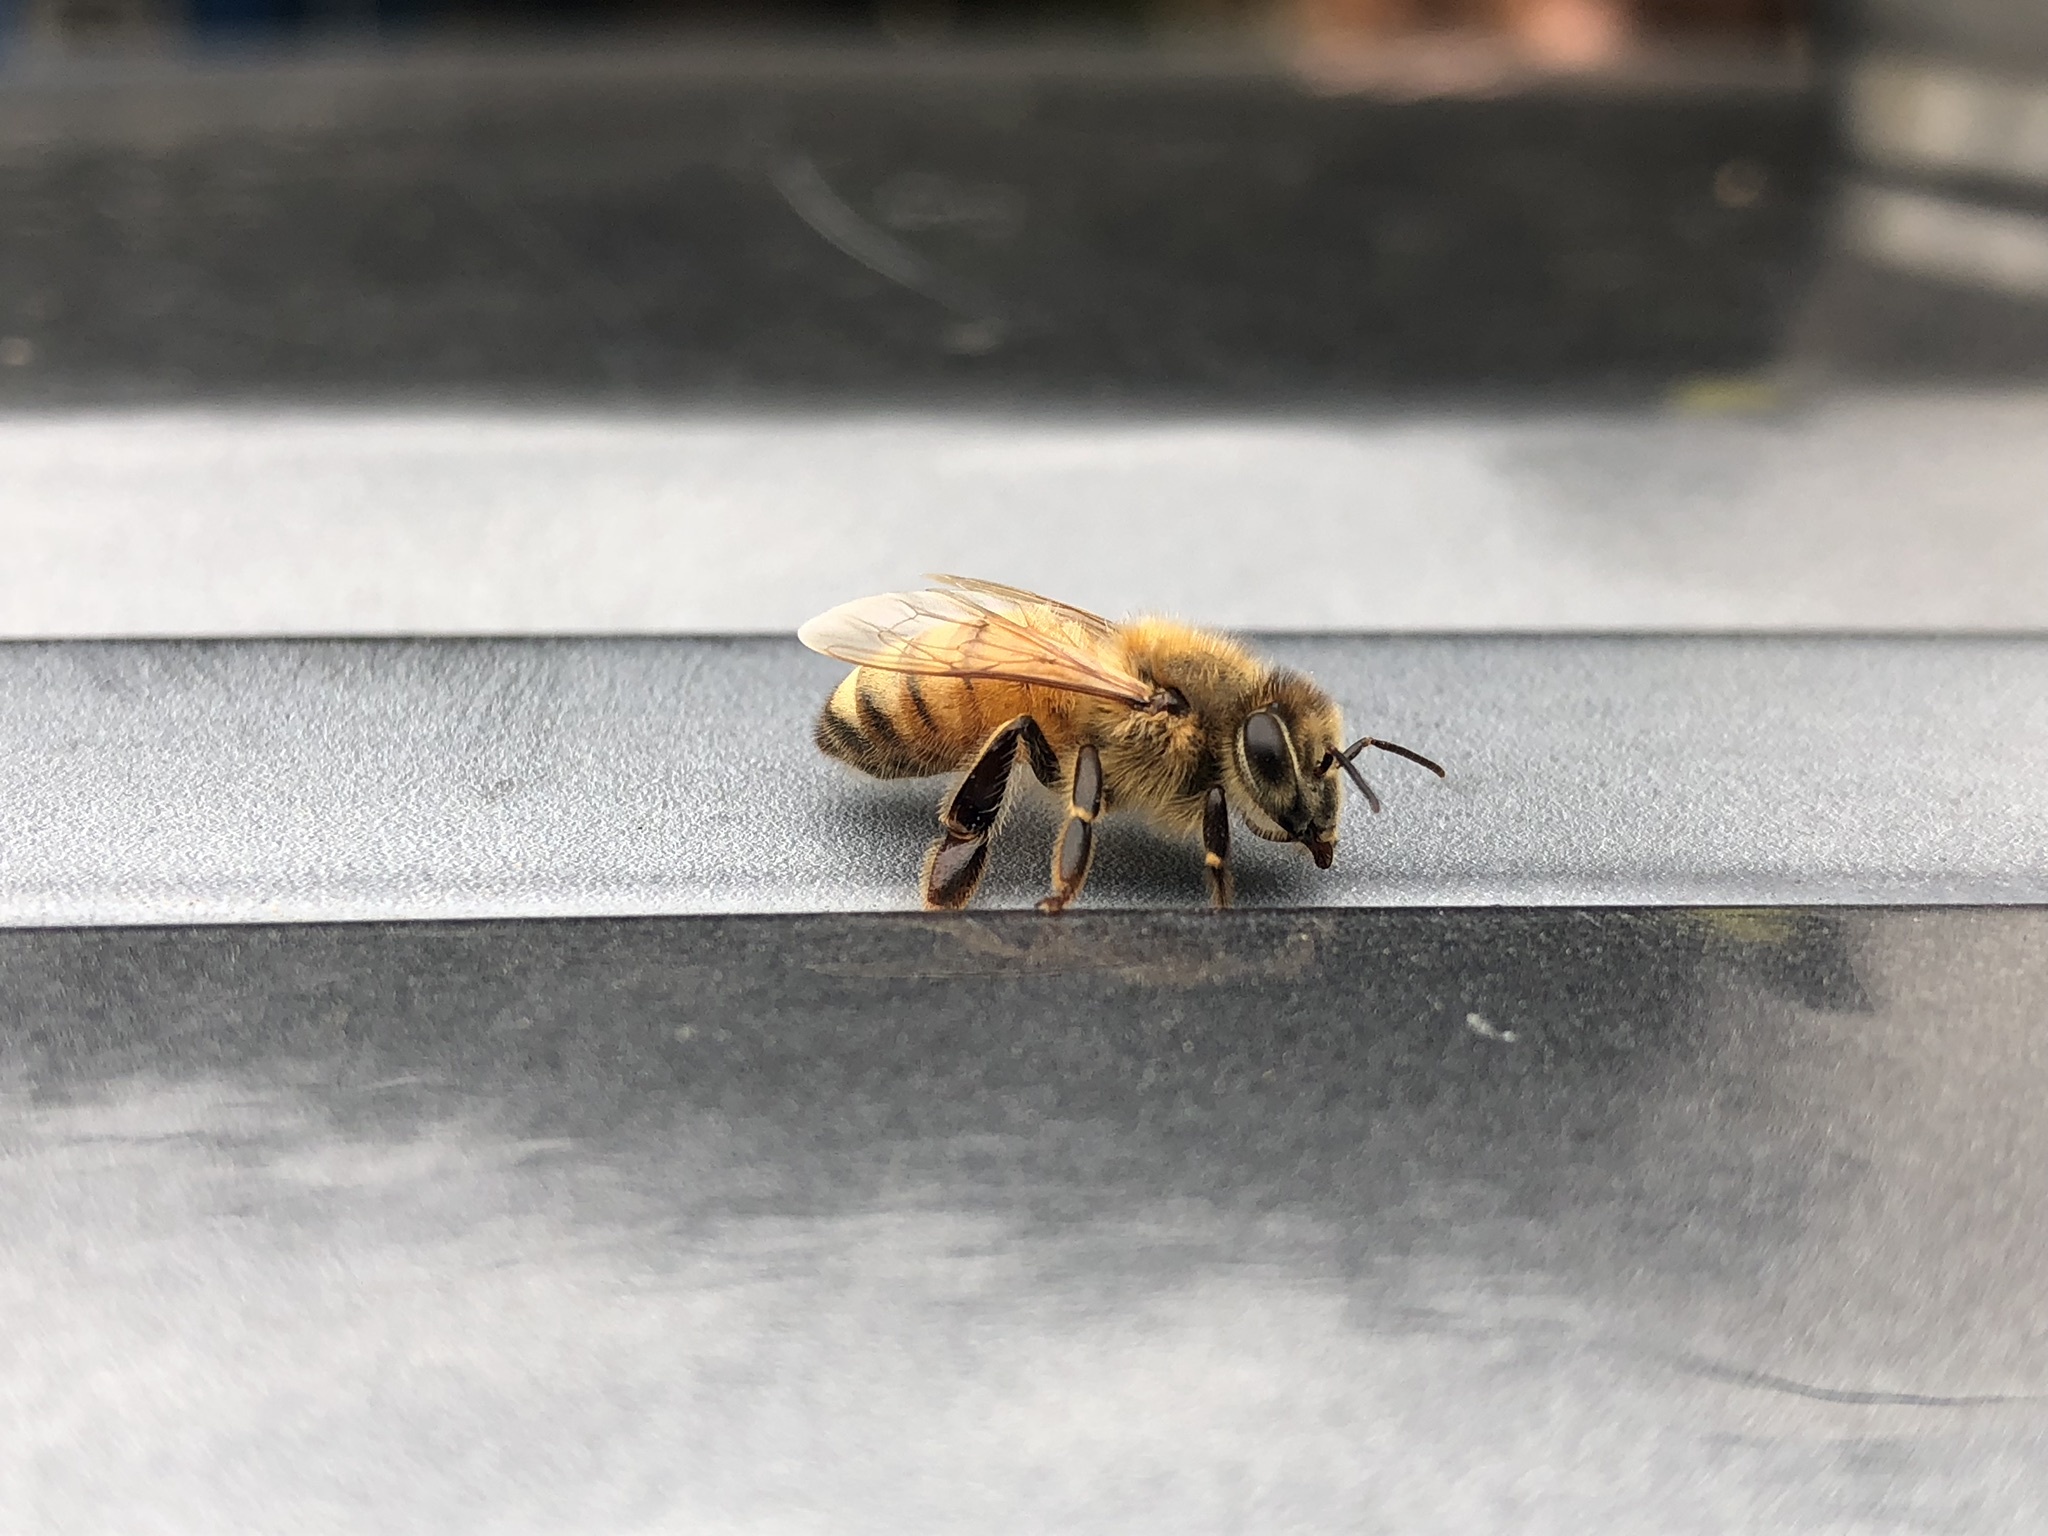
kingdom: Animalia
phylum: Arthropoda
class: Insecta
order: Hymenoptera
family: Apidae
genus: Apis
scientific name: Apis mellifera
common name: Honey bee
